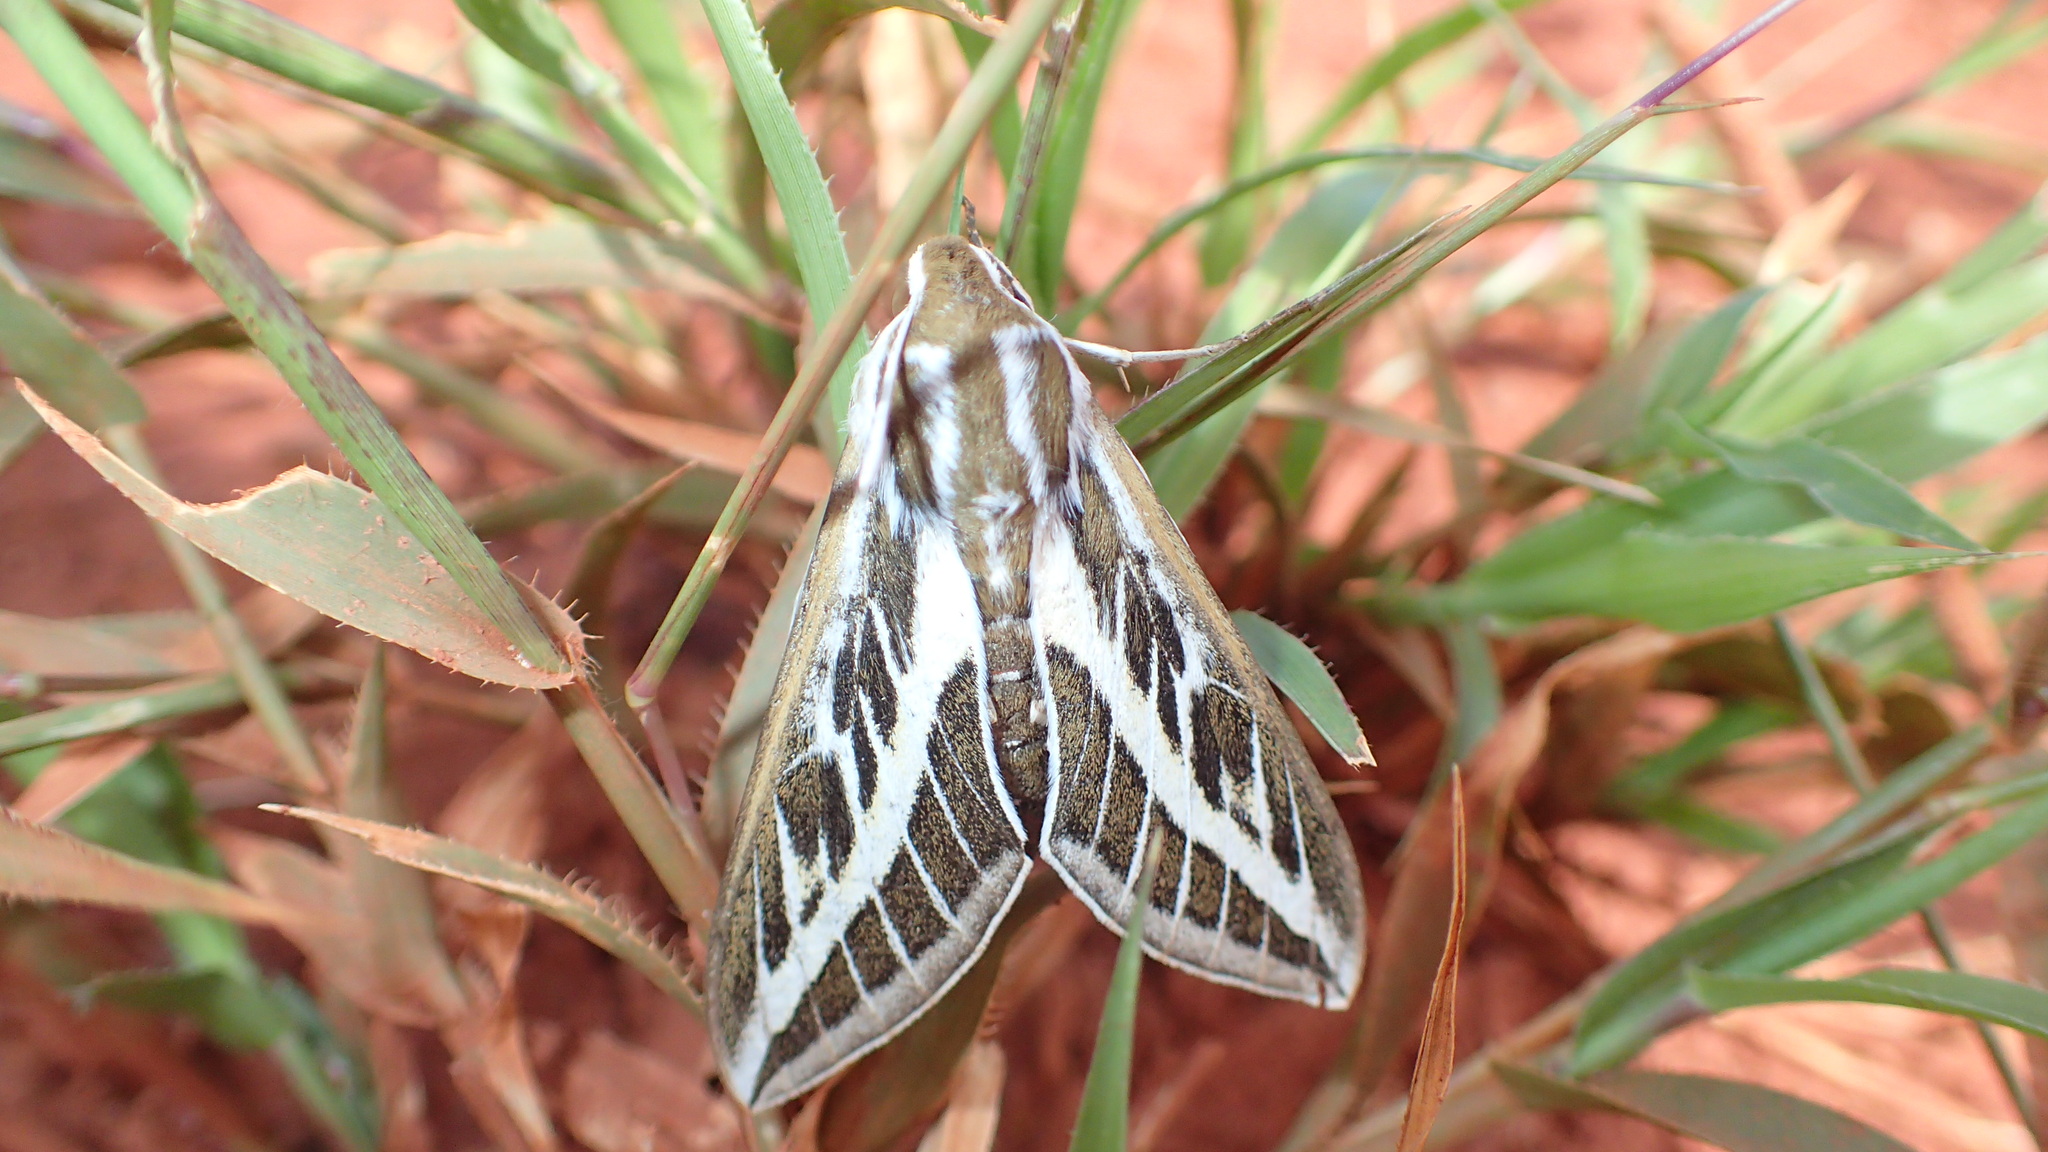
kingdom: Animalia
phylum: Arthropoda
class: Insecta
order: Lepidoptera
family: Sphingidae
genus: Hyles
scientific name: Hyles livornicoides
